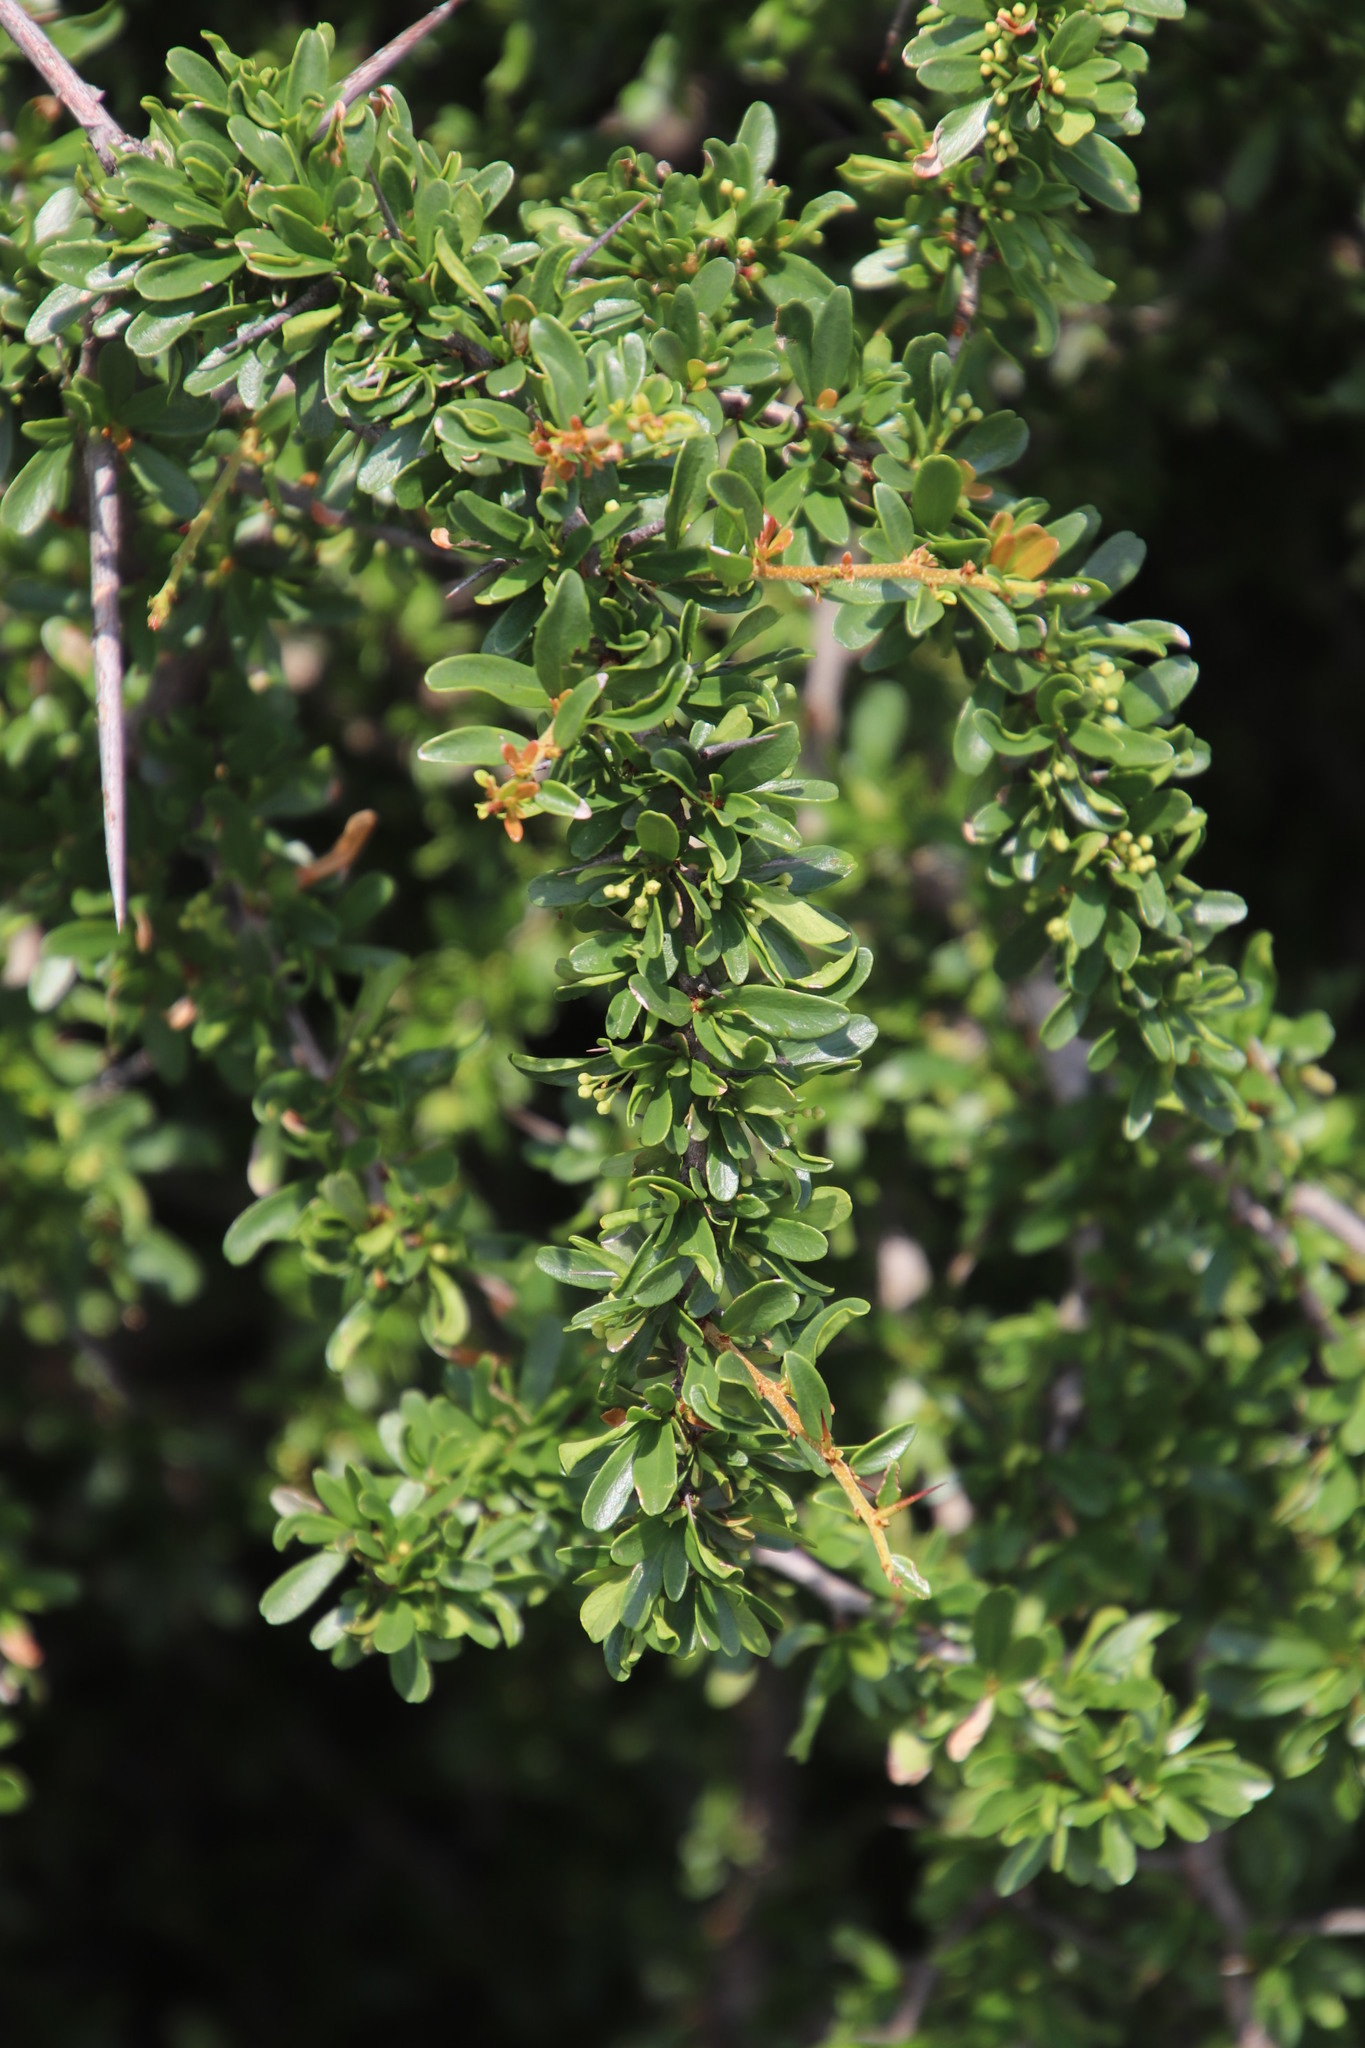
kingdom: Plantae
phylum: Tracheophyta
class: Magnoliopsida
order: Celastrales
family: Celastraceae
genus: Gymnosporia
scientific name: Gymnosporia polyacantha
